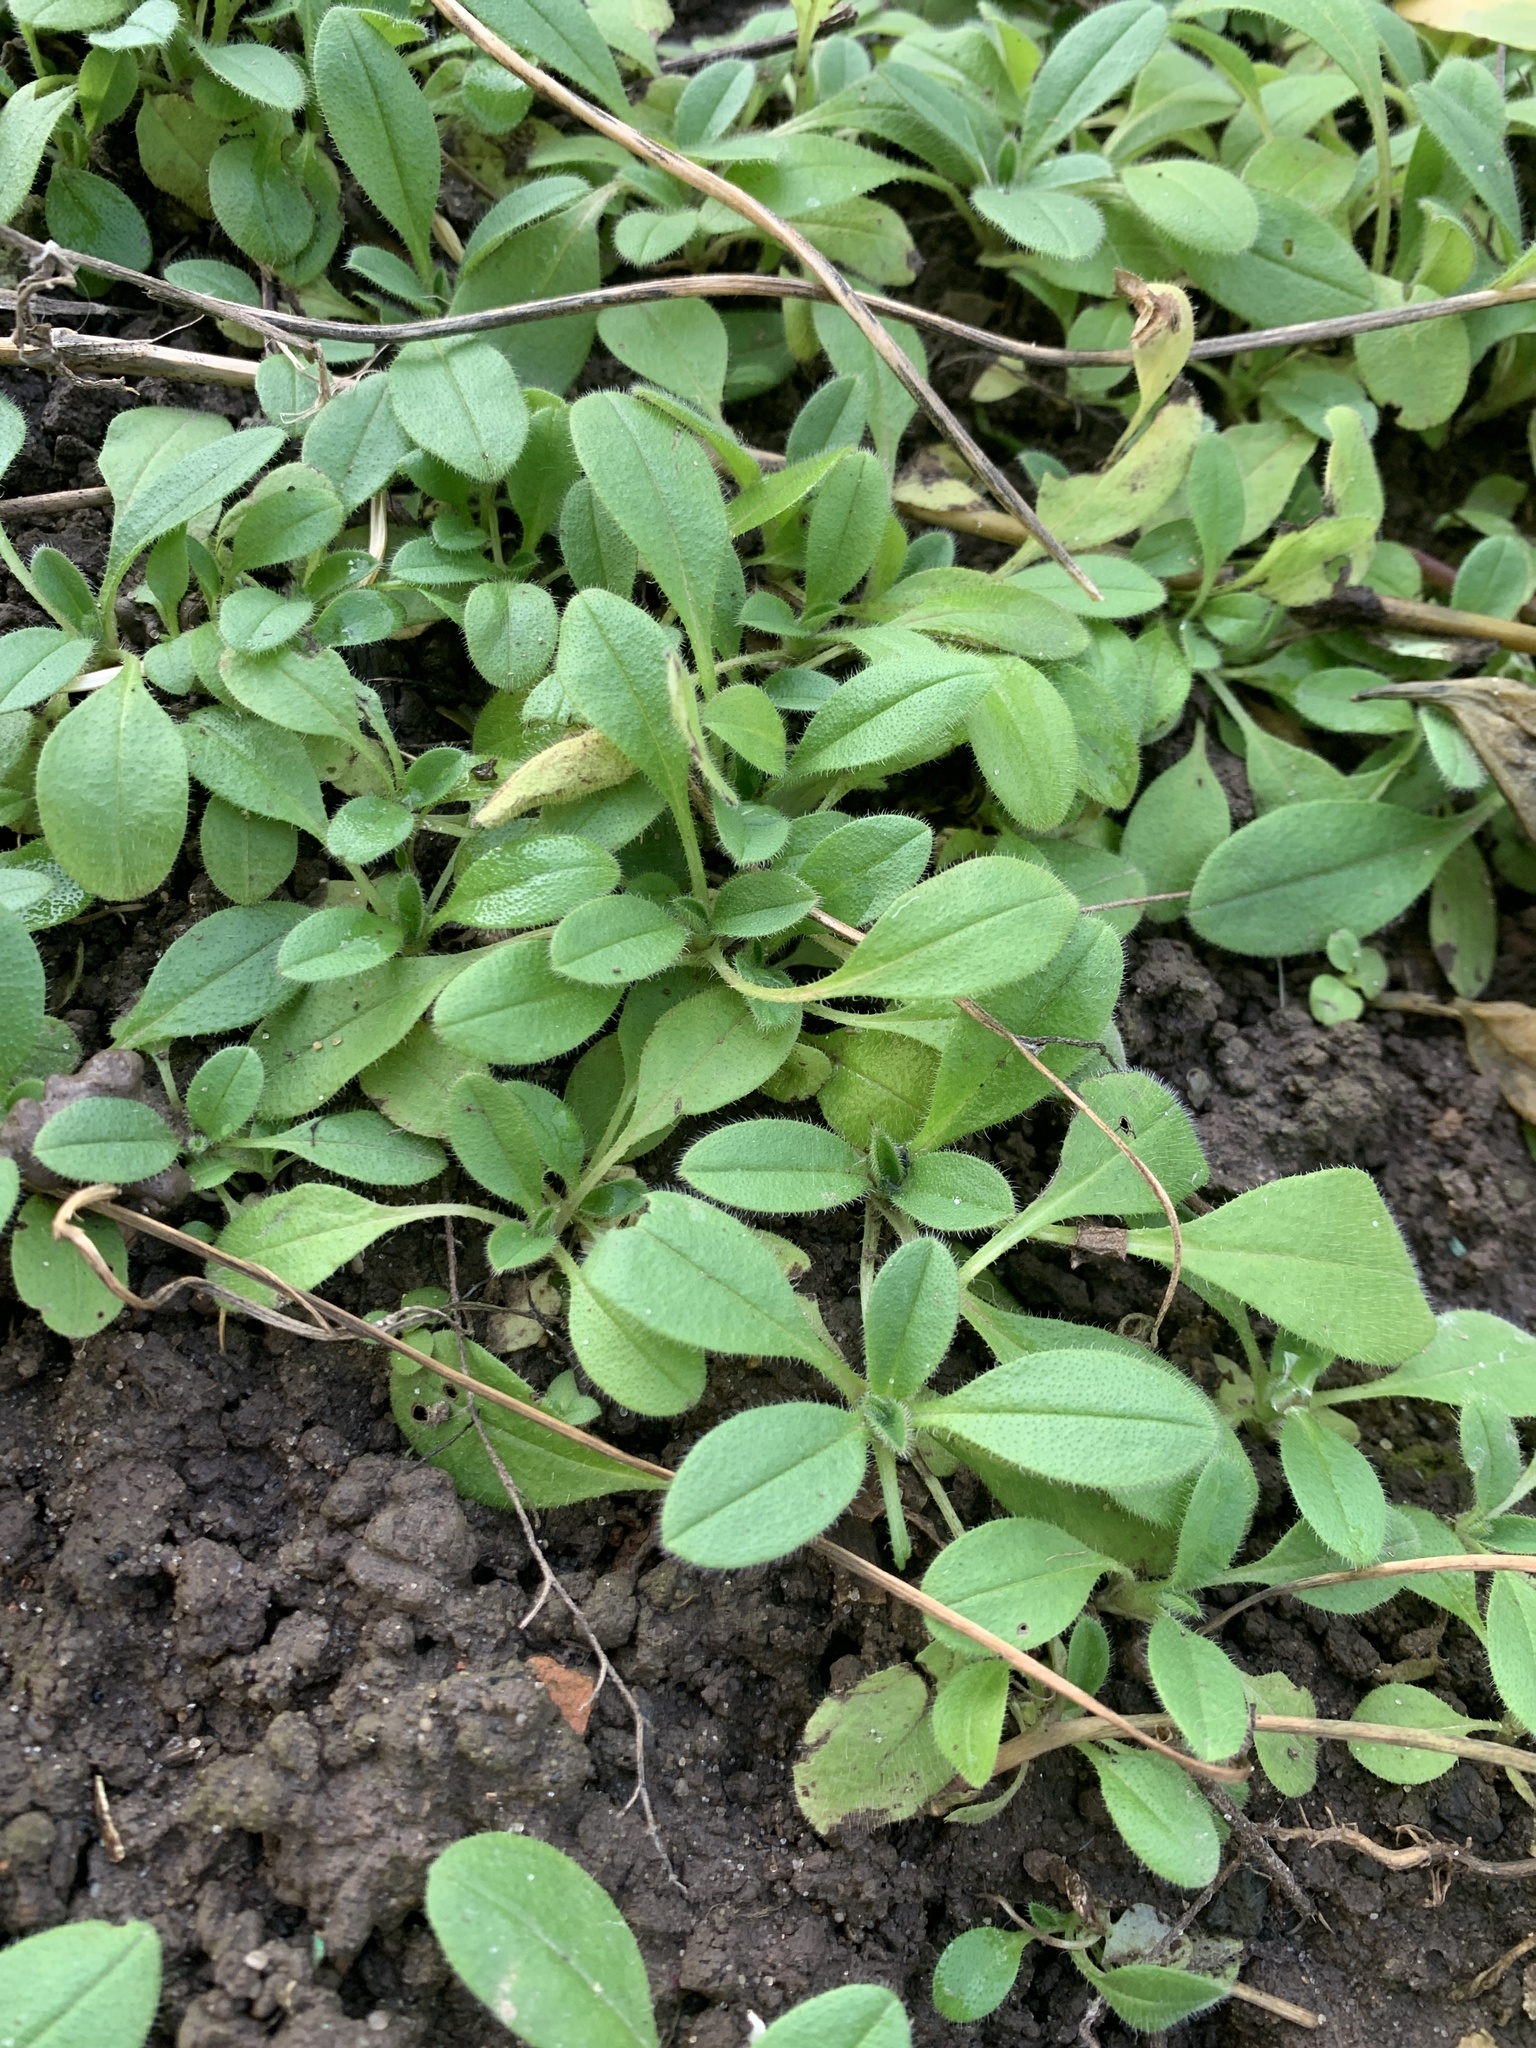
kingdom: Plantae
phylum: Tracheophyta
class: Magnoliopsida
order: Boraginales
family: Boraginaceae
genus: Myosotis
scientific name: Myosotis sparsiflora
